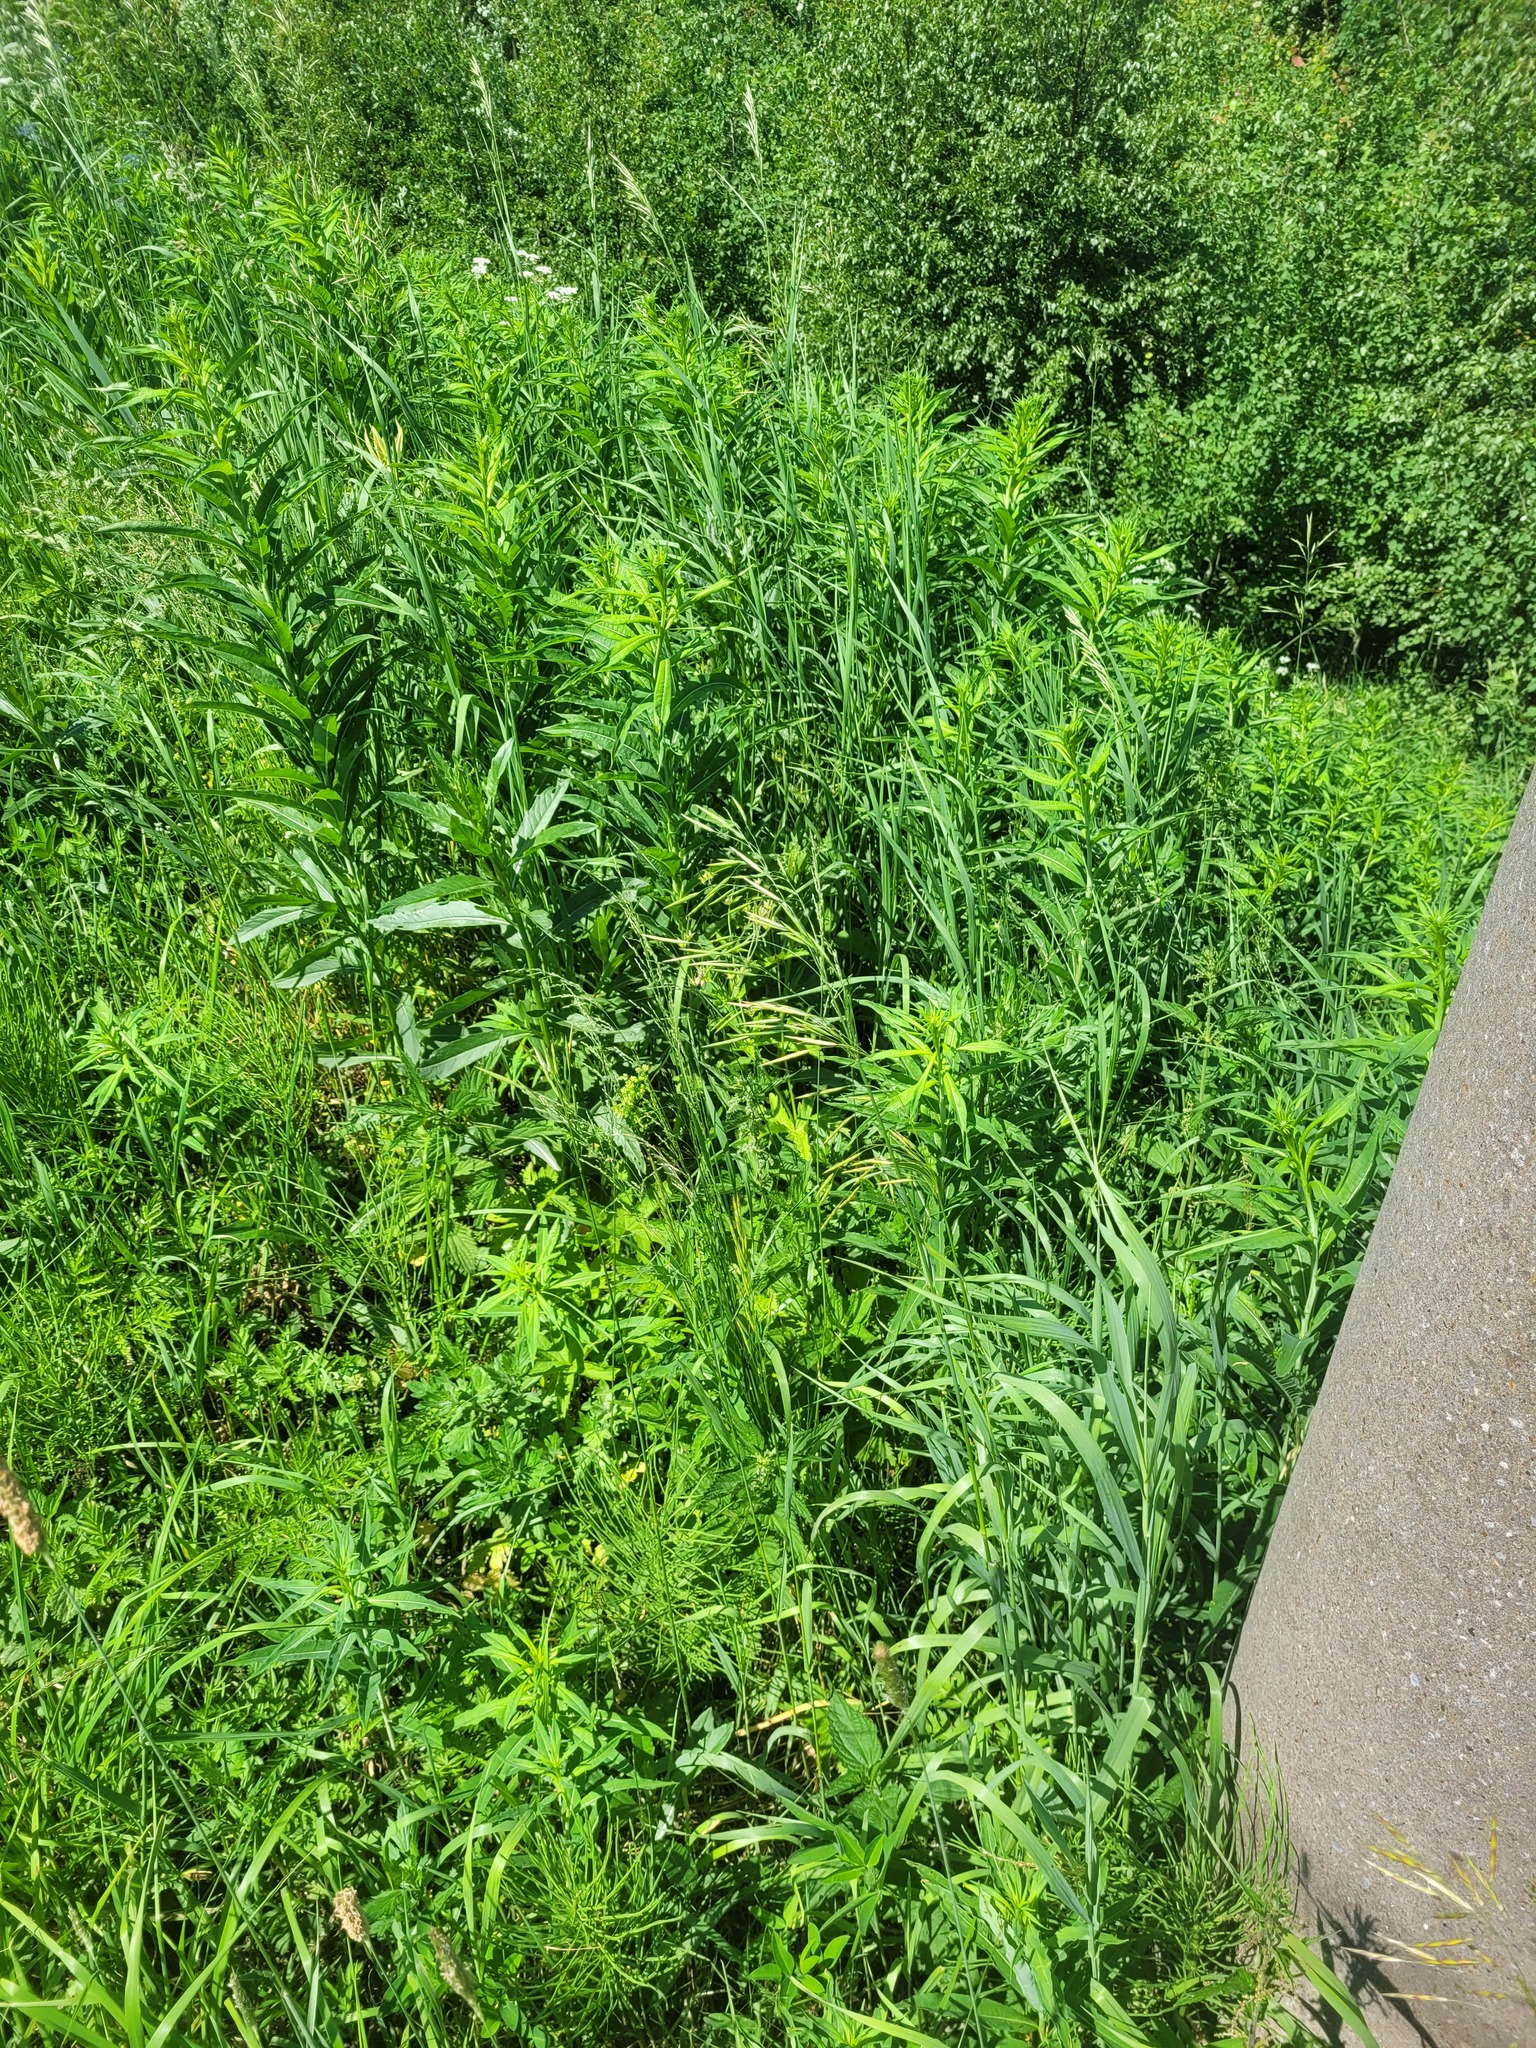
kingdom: Plantae
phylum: Tracheophyta
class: Liliopsida
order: Poales
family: Poaceae
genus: Bromus
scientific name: Bromus inermis
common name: Smooth brome
